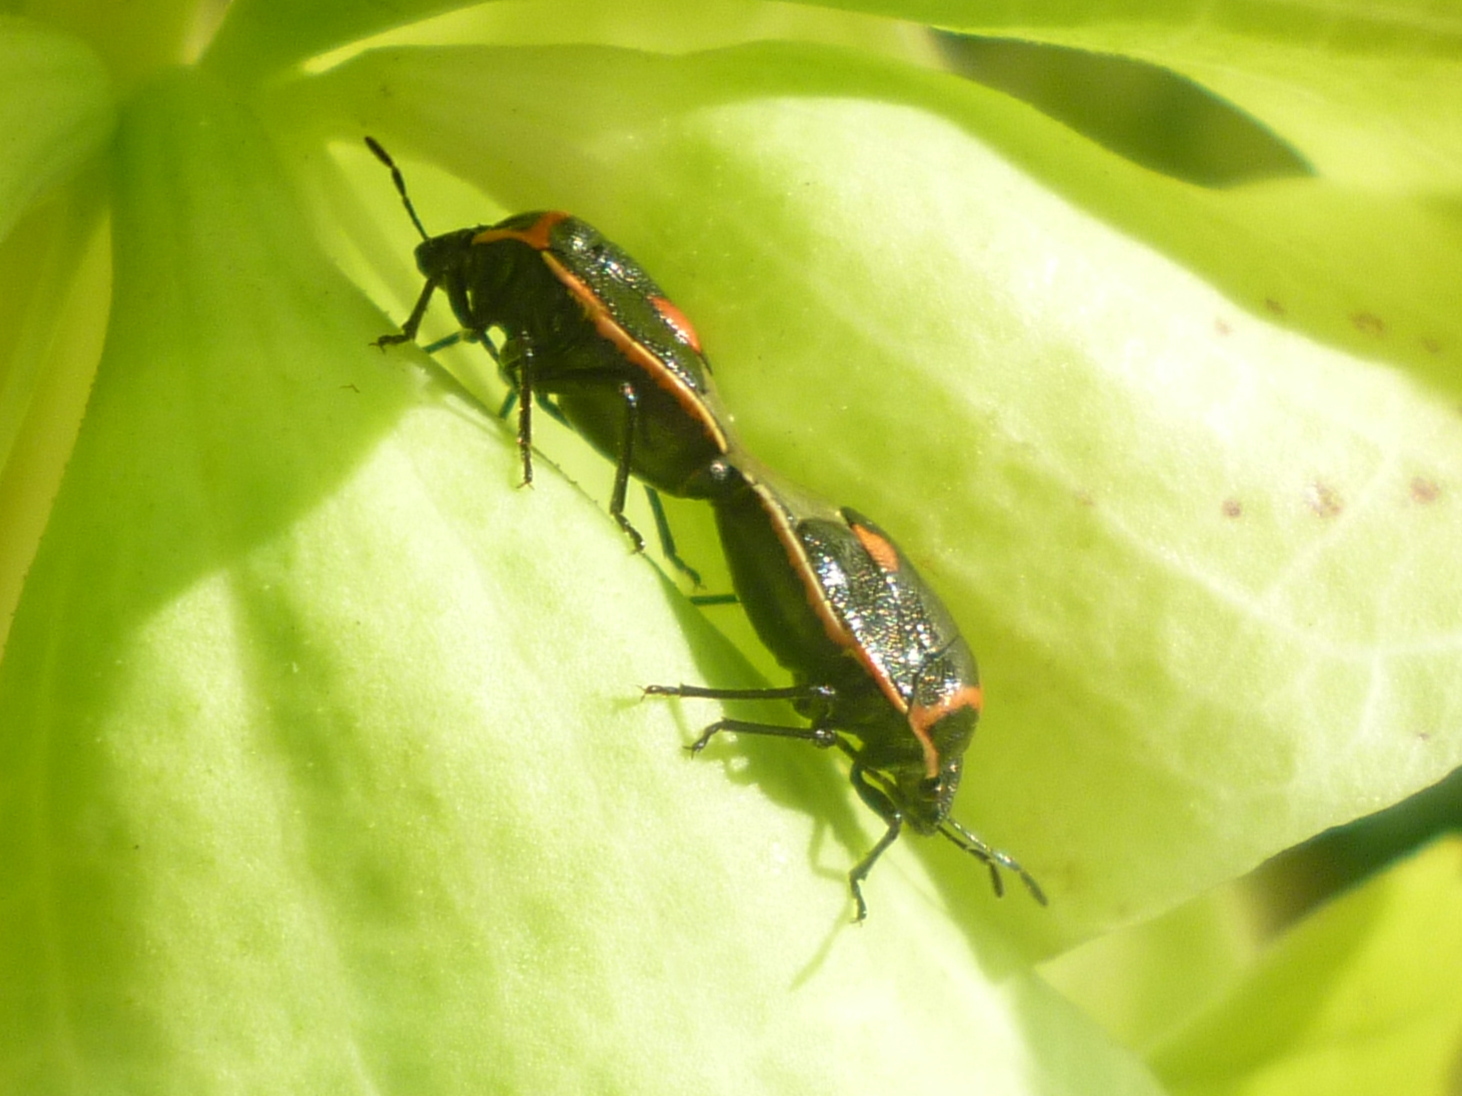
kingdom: Animalia
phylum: Arthropoda
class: Insecta
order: Hemiptera
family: Pentatomidae
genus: Cosmopepla
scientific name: Cosmopepla lintneriana
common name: Twice-stabbed stink bug
